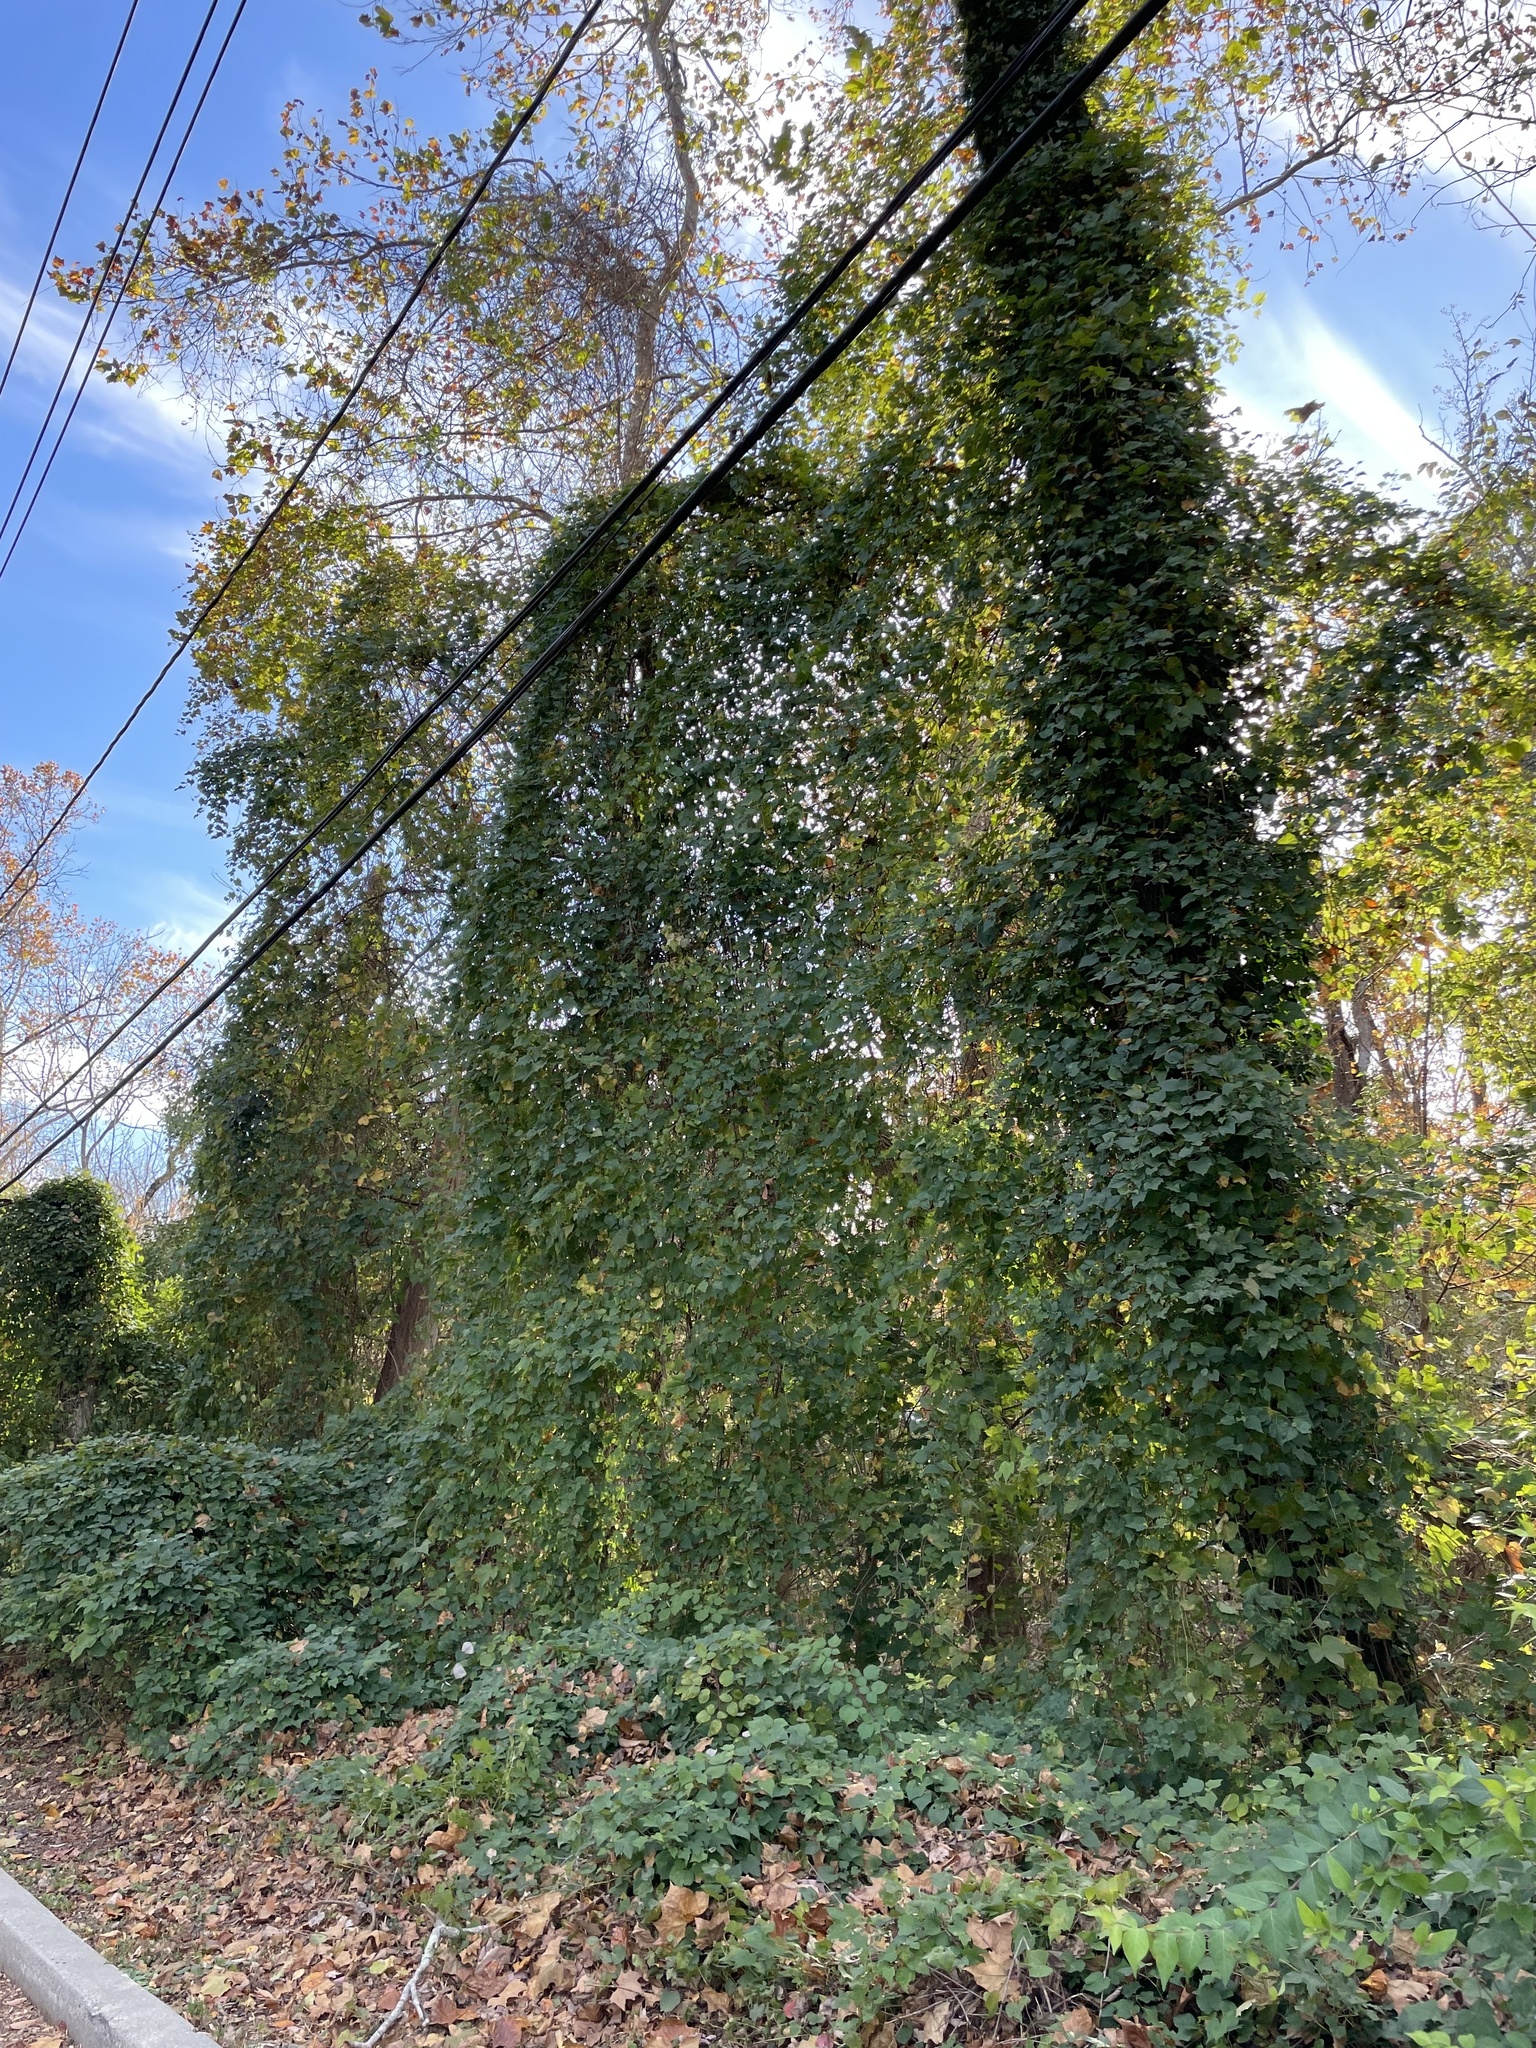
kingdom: Plantae
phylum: Tracheophyta
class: Magnoliopsida
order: Vitales
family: Vitaceae
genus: Ampelopsis
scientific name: Ampelopsis glandulosa
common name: Amur peppervine
